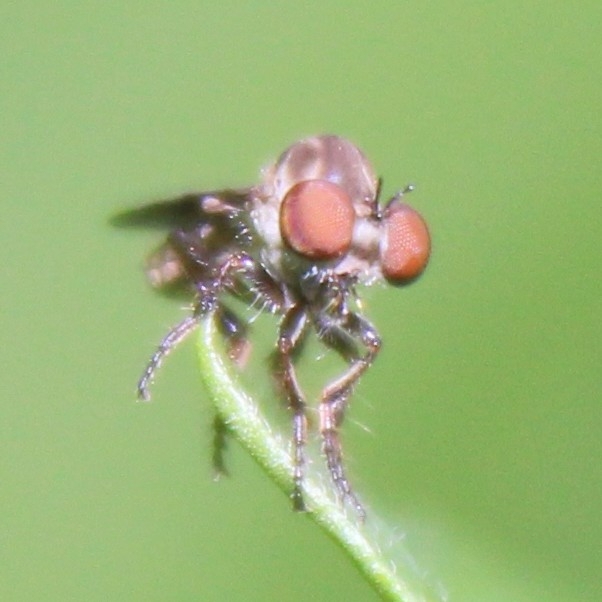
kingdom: Animalia
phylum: Arthropoda
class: Insecta
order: Diptera
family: Asilidae
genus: Holcocephala
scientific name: Holcocephala calva
